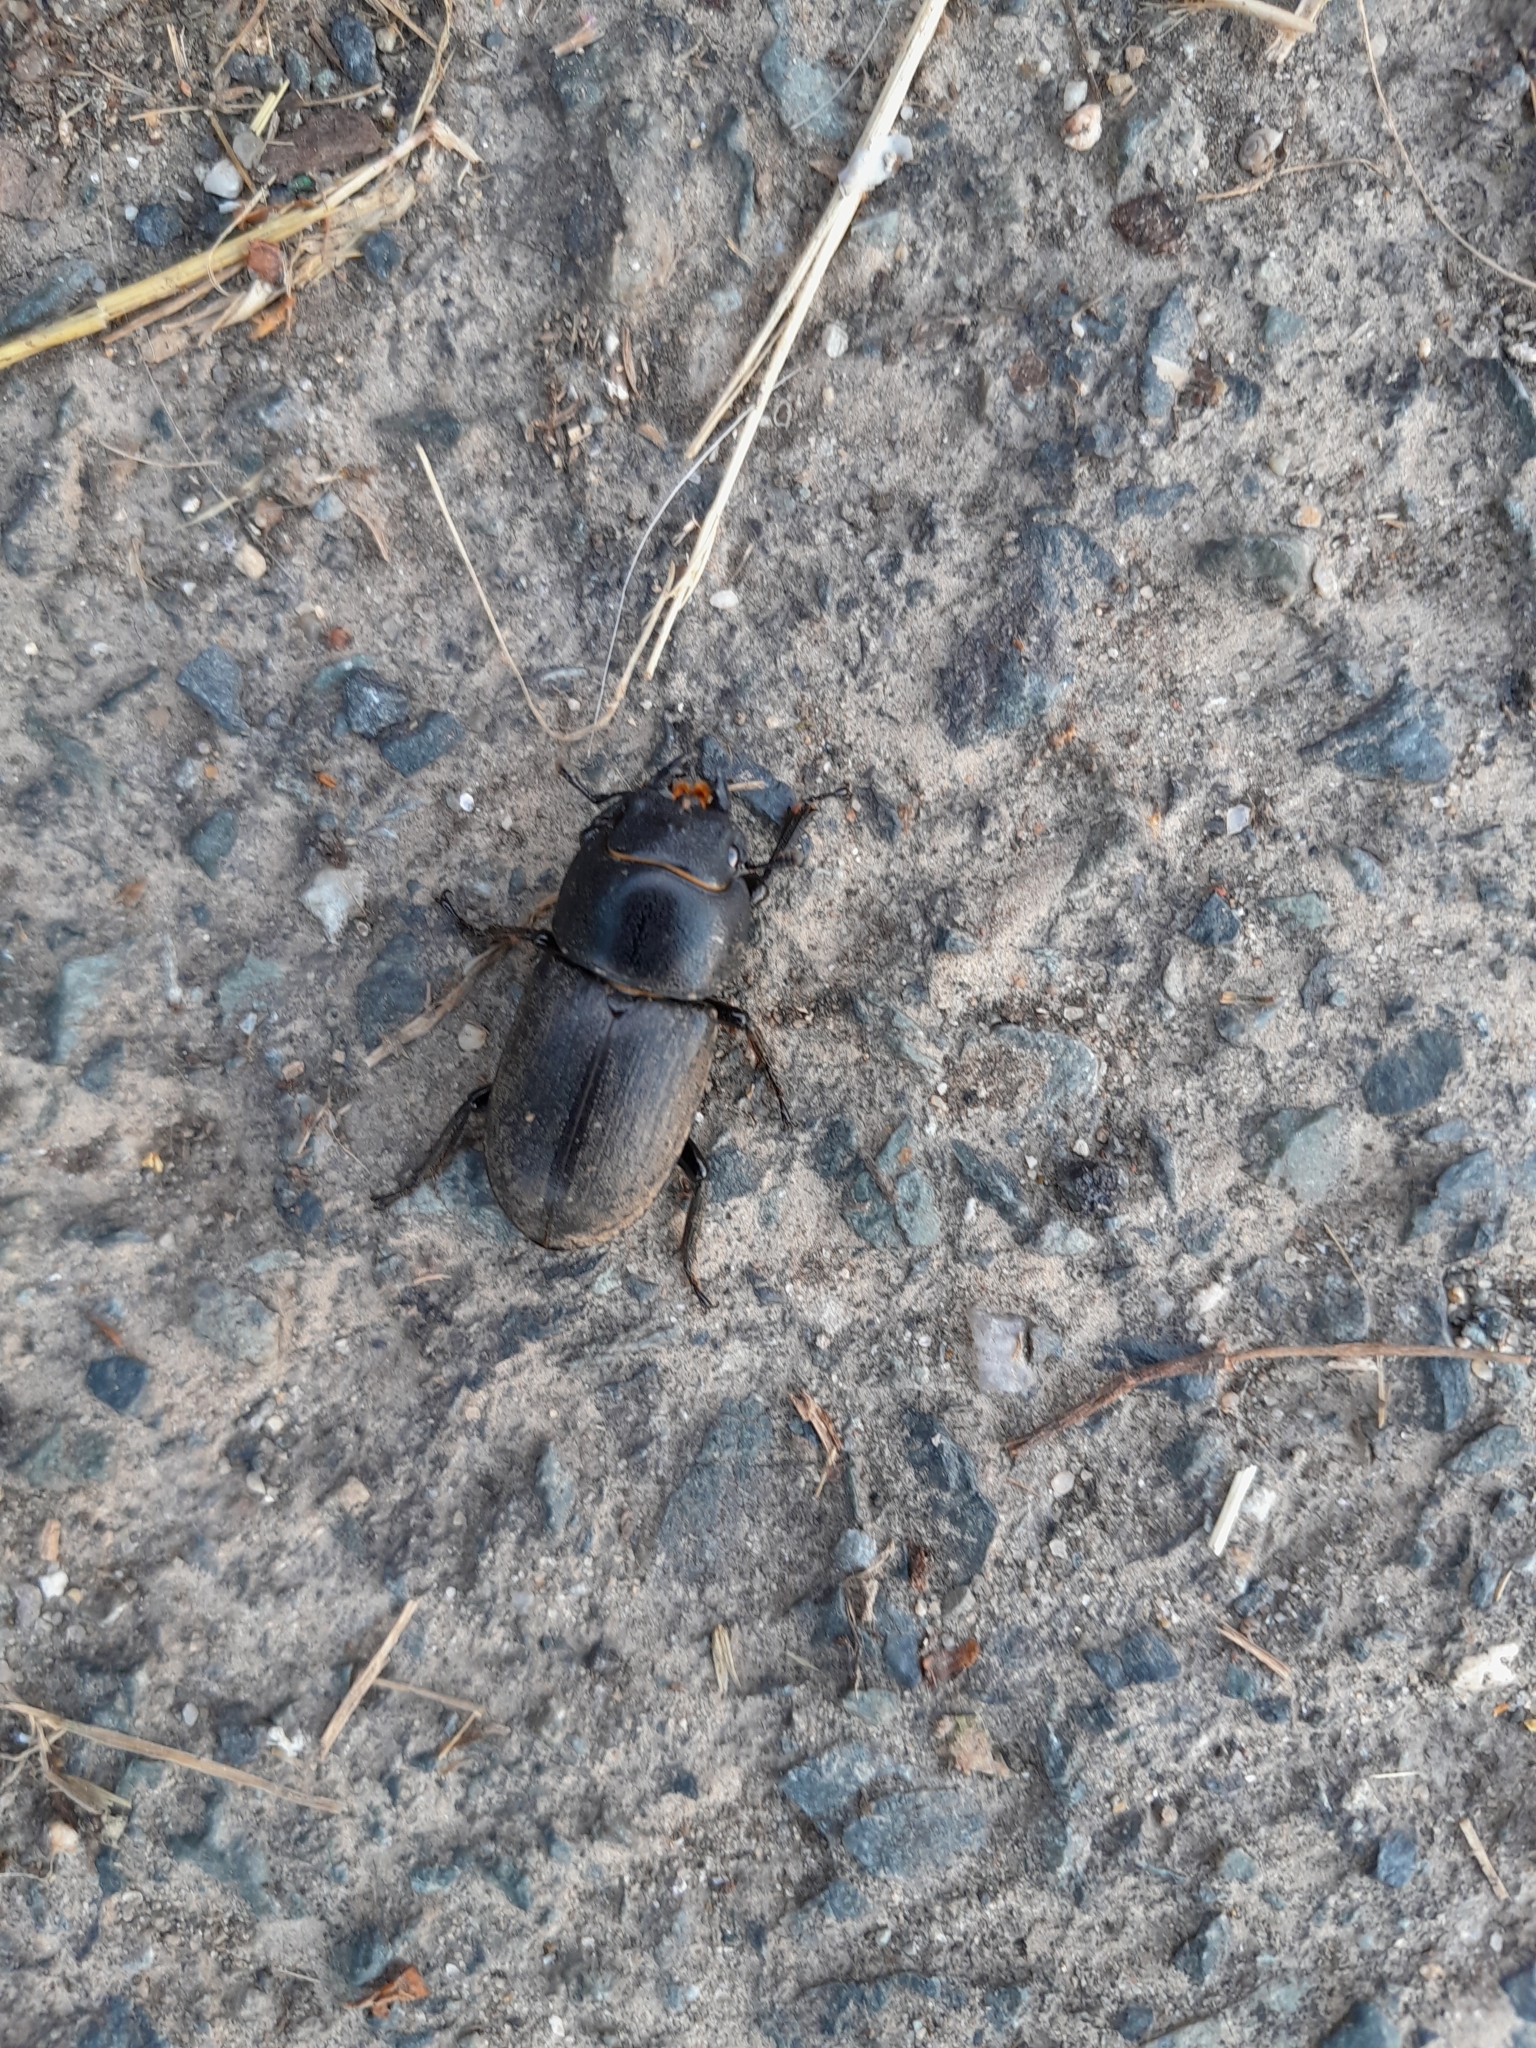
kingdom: Animalia
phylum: Arthropoda
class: Insecta
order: Coleoptera
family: Lucanidae
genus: Dorcus
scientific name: Dorcus parallelipipedus
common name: Lesser stag beetle
